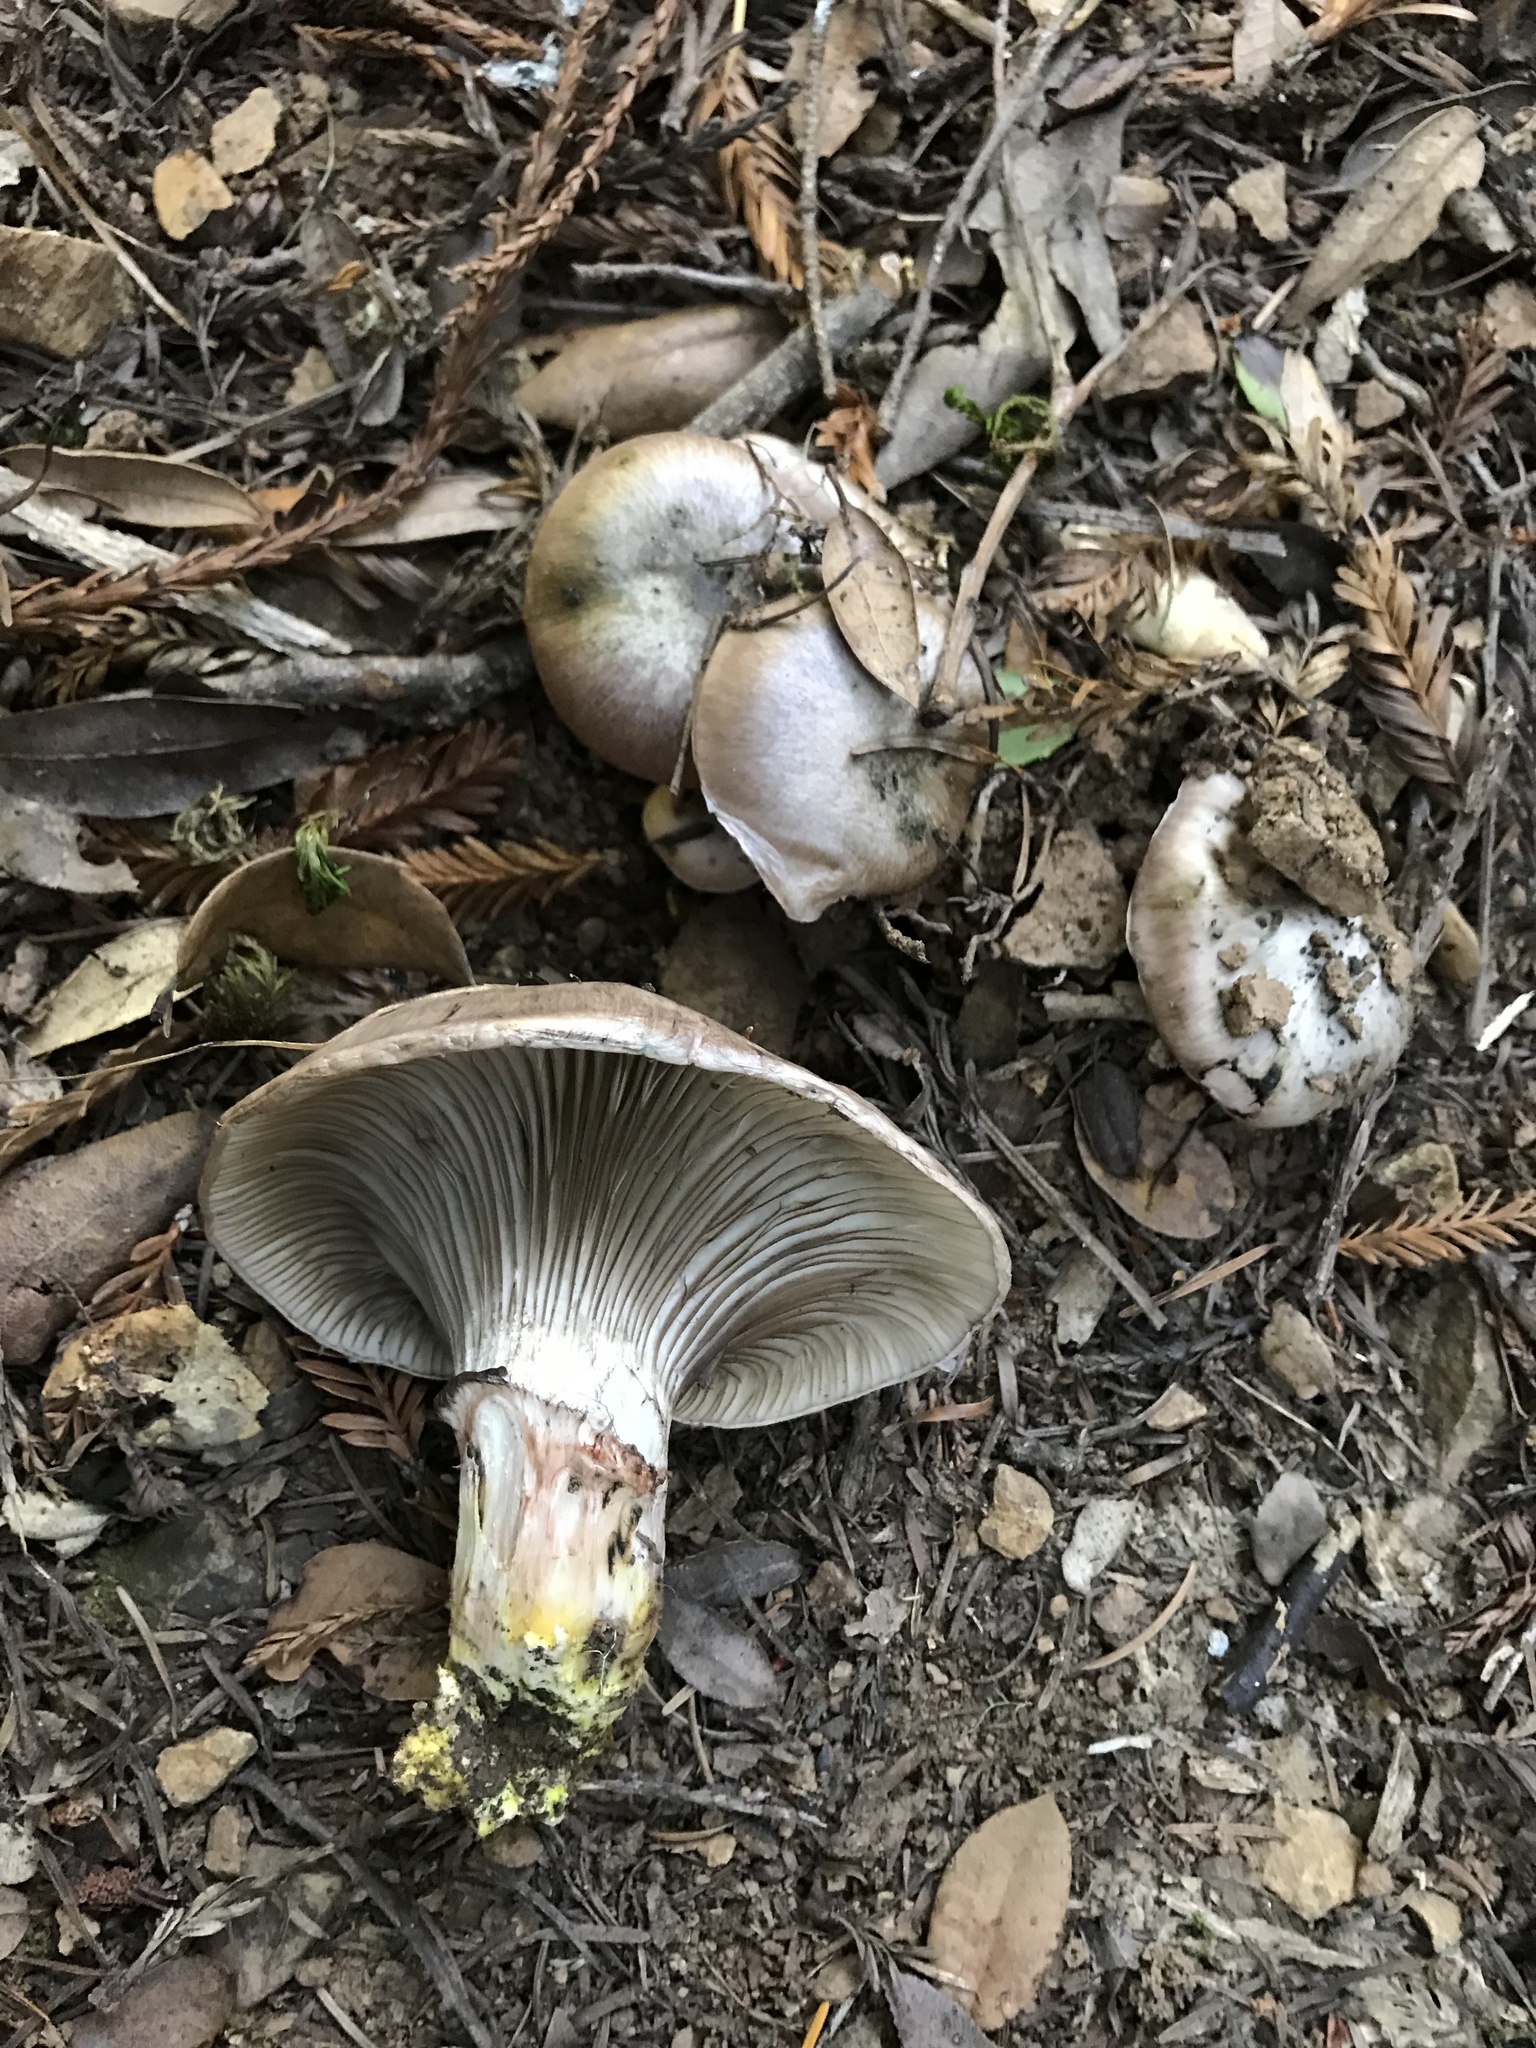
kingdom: Fungi
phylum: Basidiomycota
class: Agaricomycetes
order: Boletales
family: Gomphidiaceae
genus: Gomphidius
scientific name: Gomphidius oregonensis
